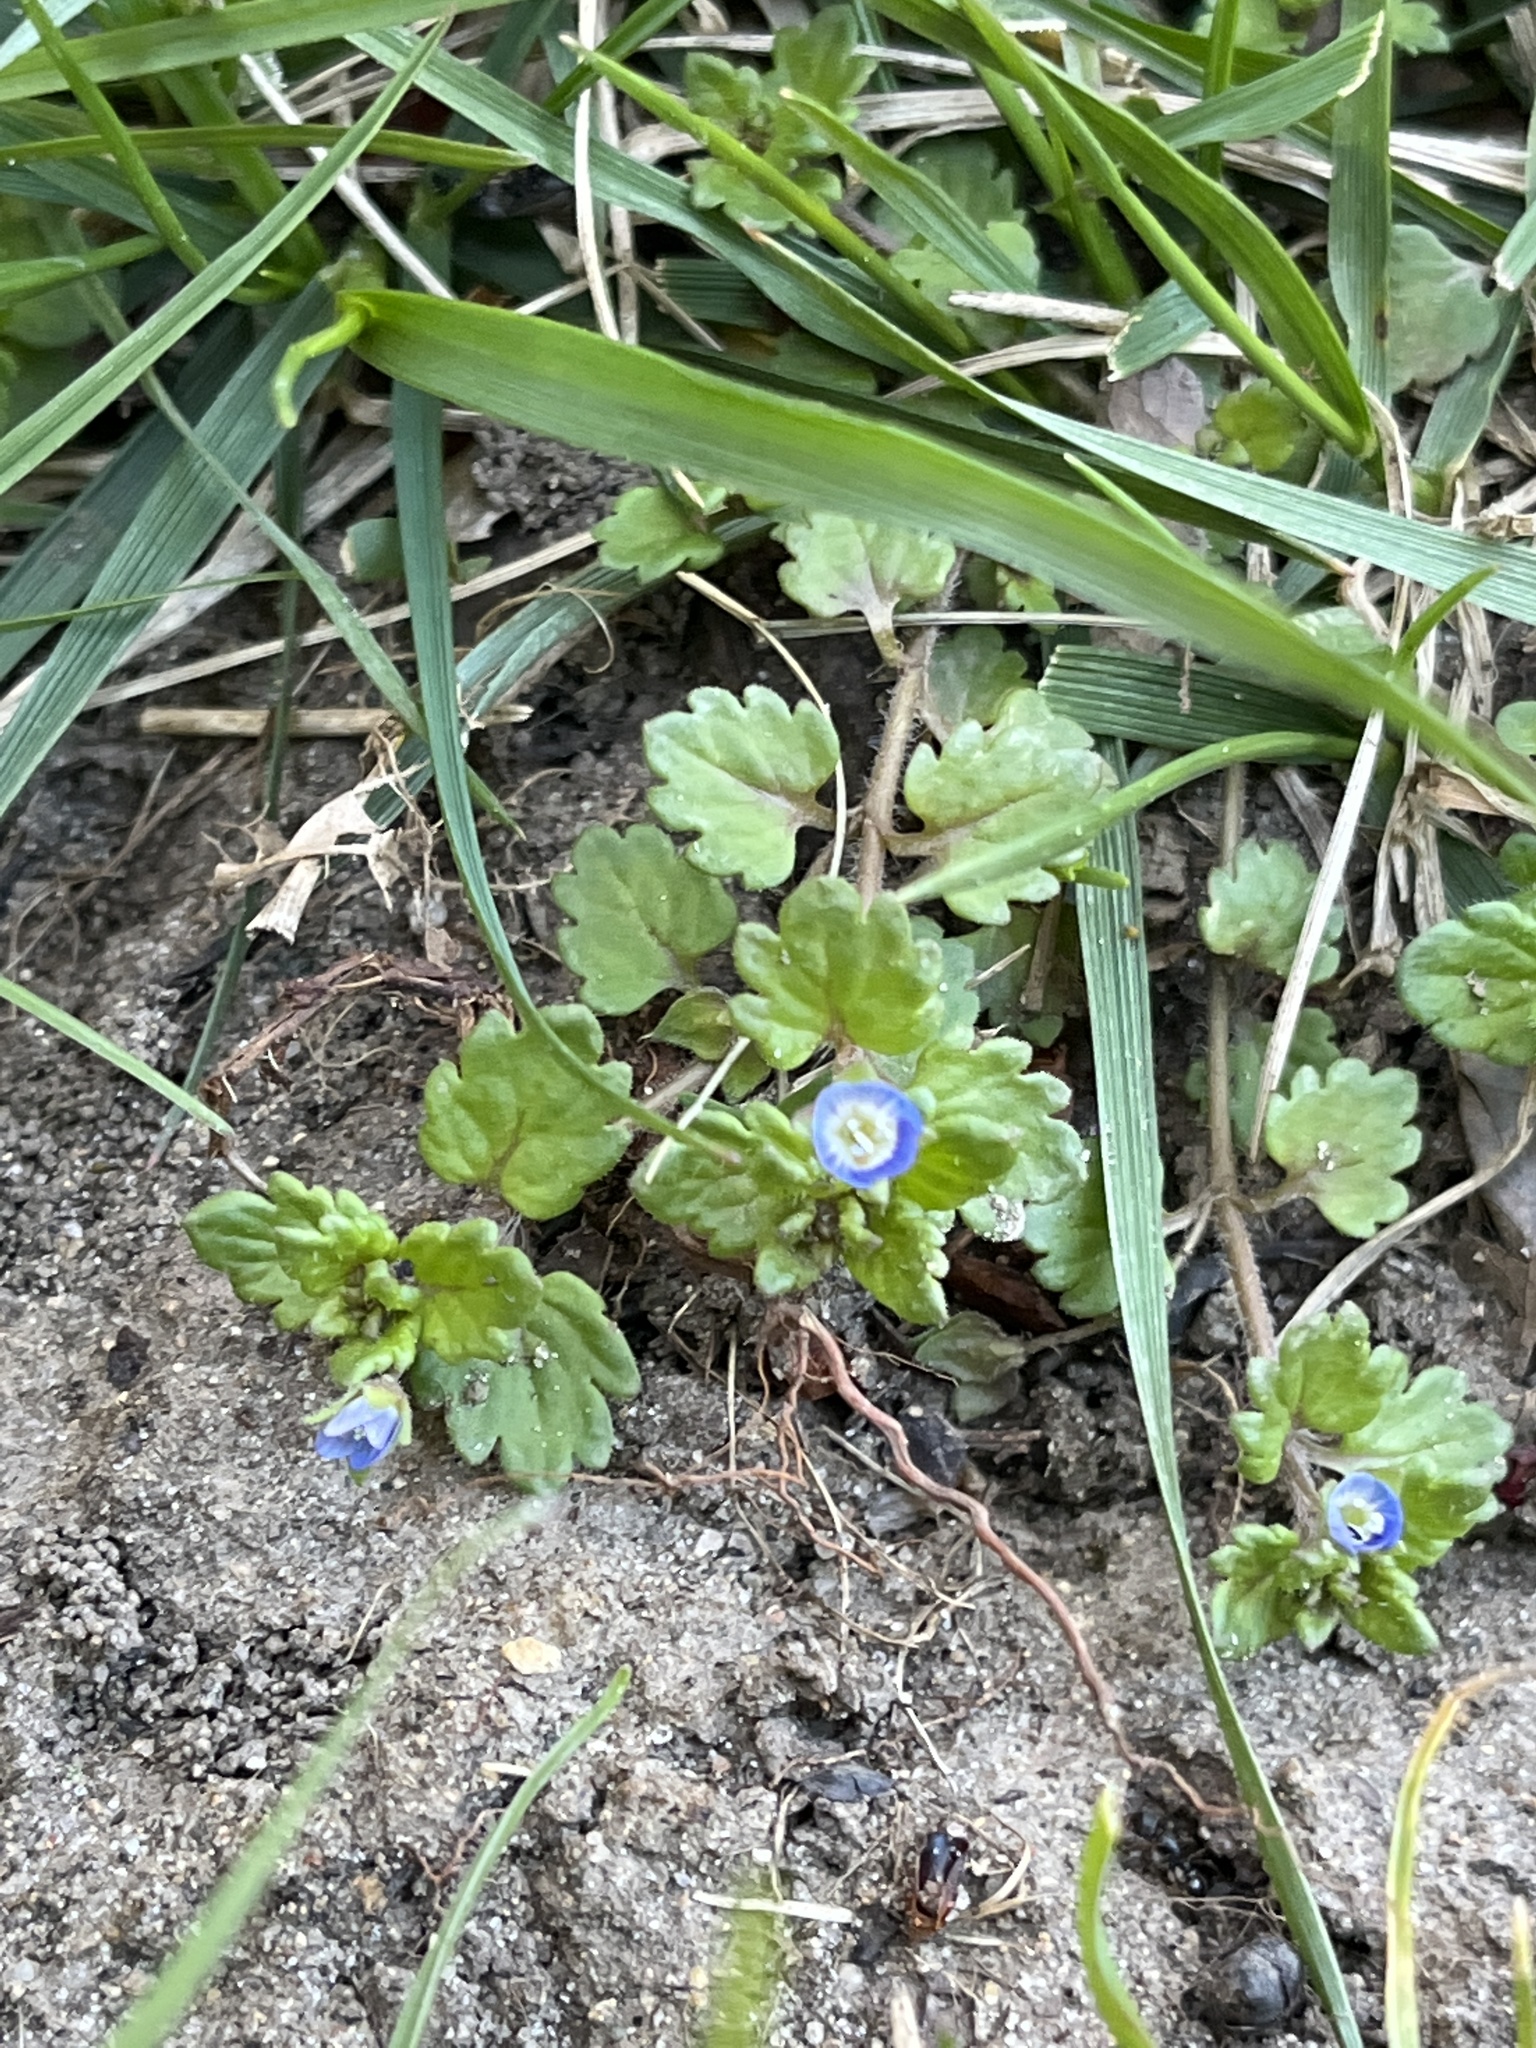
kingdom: Plantae
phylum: Tracheophyta
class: Magnoliopsida
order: Lamiales
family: Plantaginaceae
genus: Veronica
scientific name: Veronica polita
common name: Grey field-speedwell
